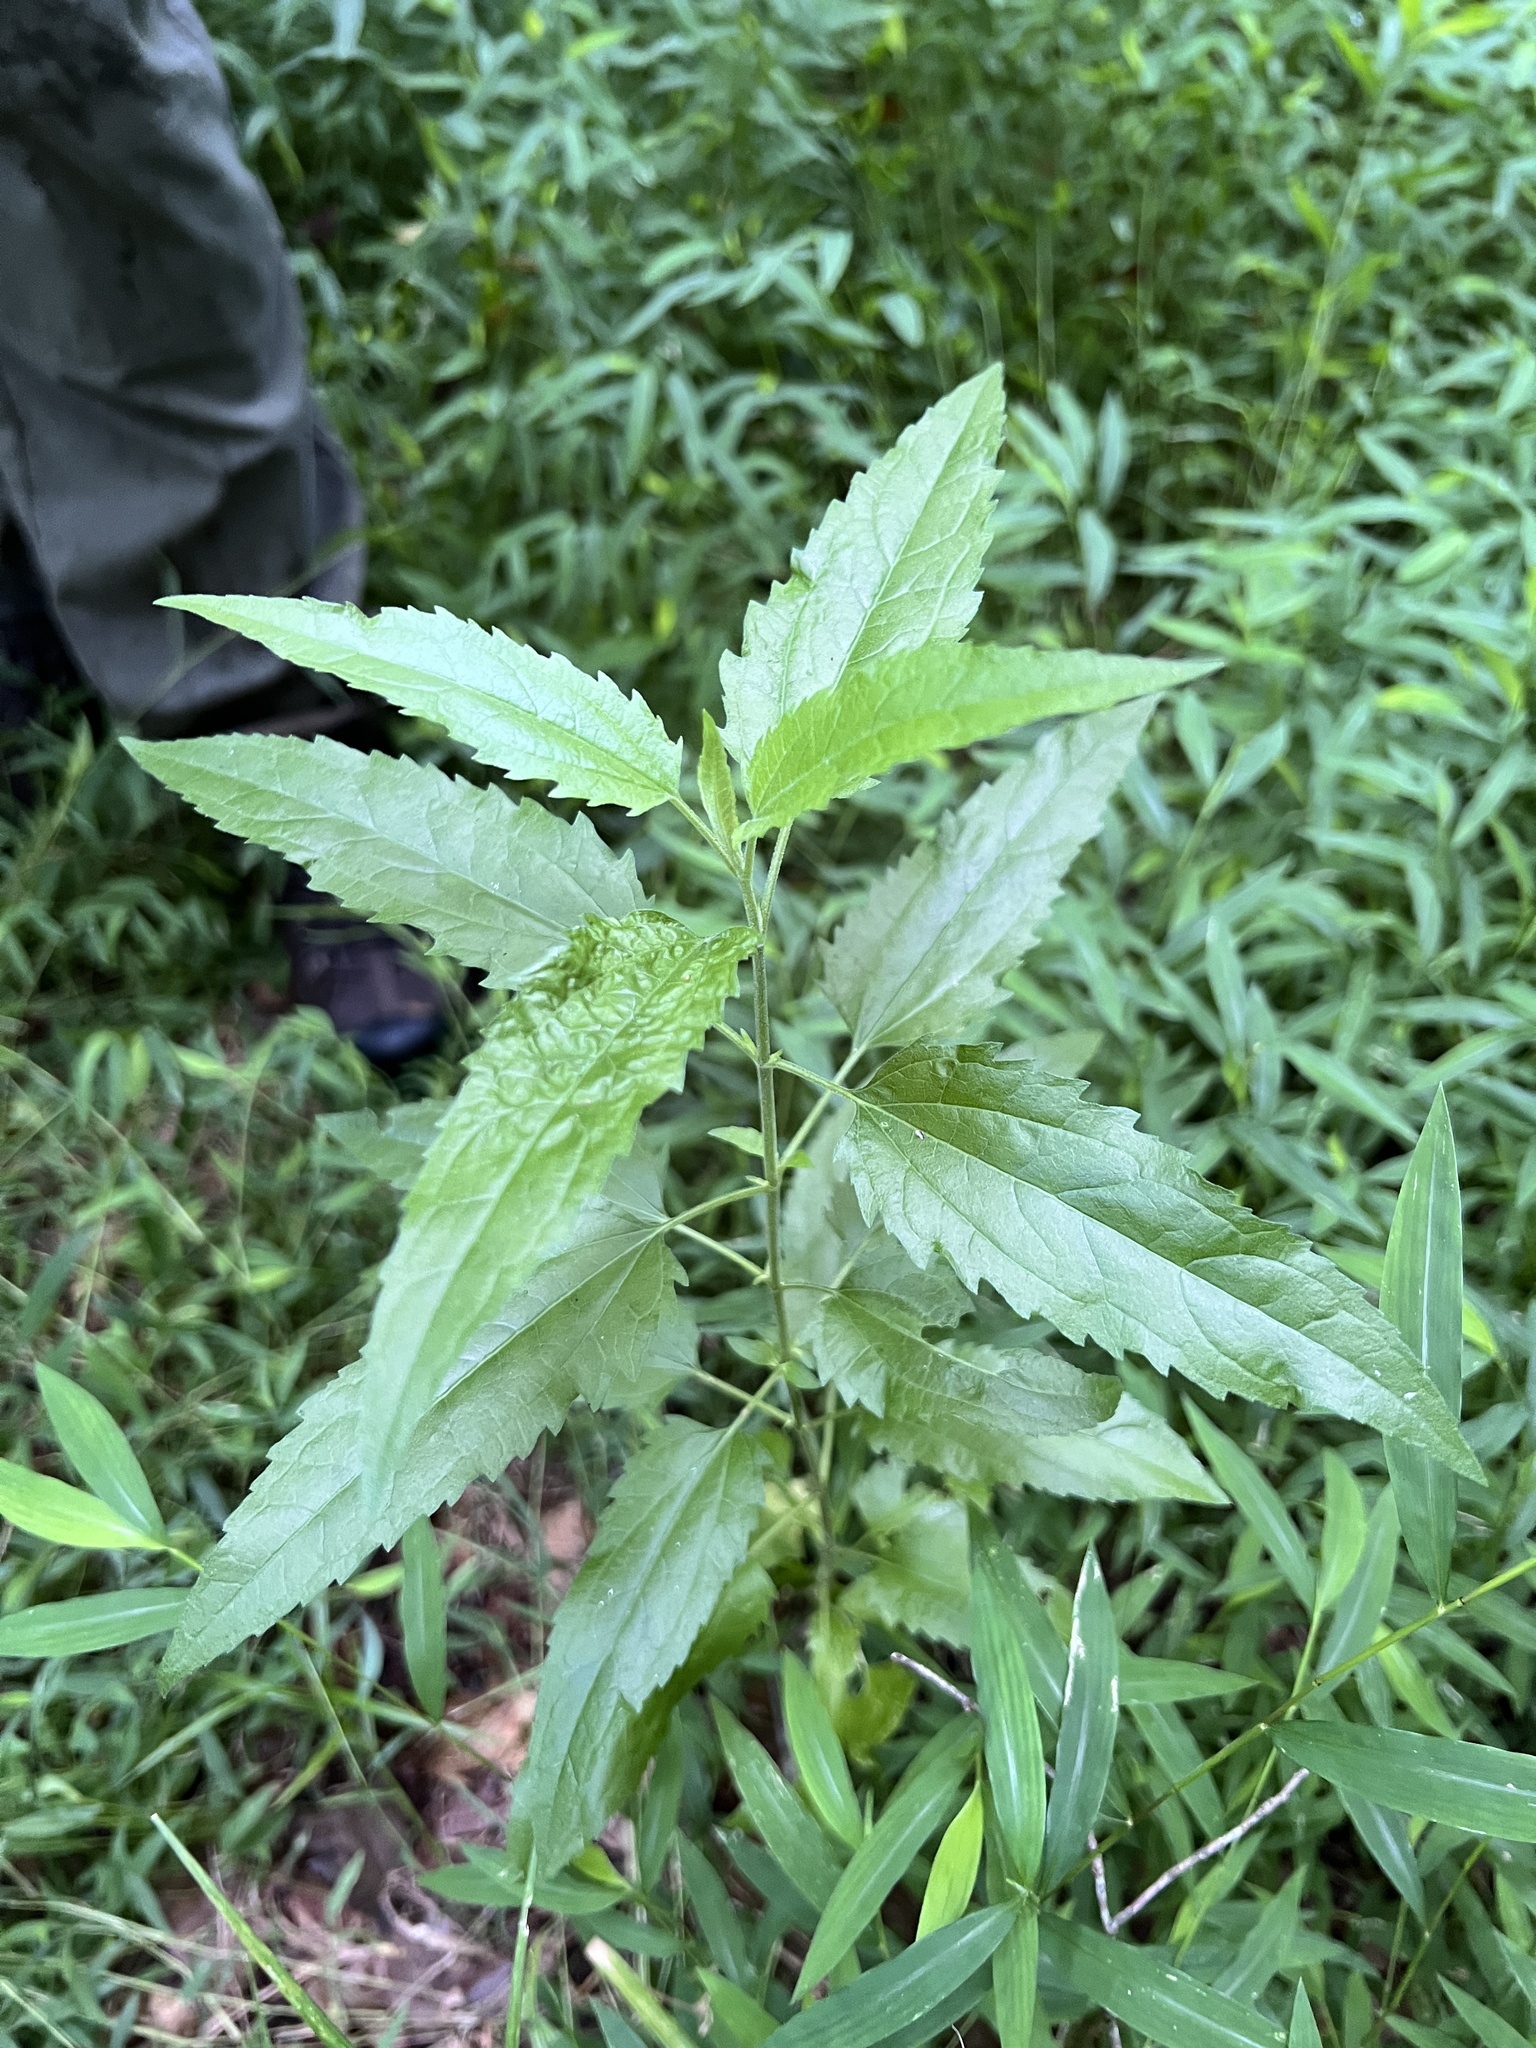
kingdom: Plantae
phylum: Tracheophyta
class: Magnoliopsida
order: Asterales
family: Asteraceae
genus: Eupatorium
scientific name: Eupatorium serotinum
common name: Late boneset
